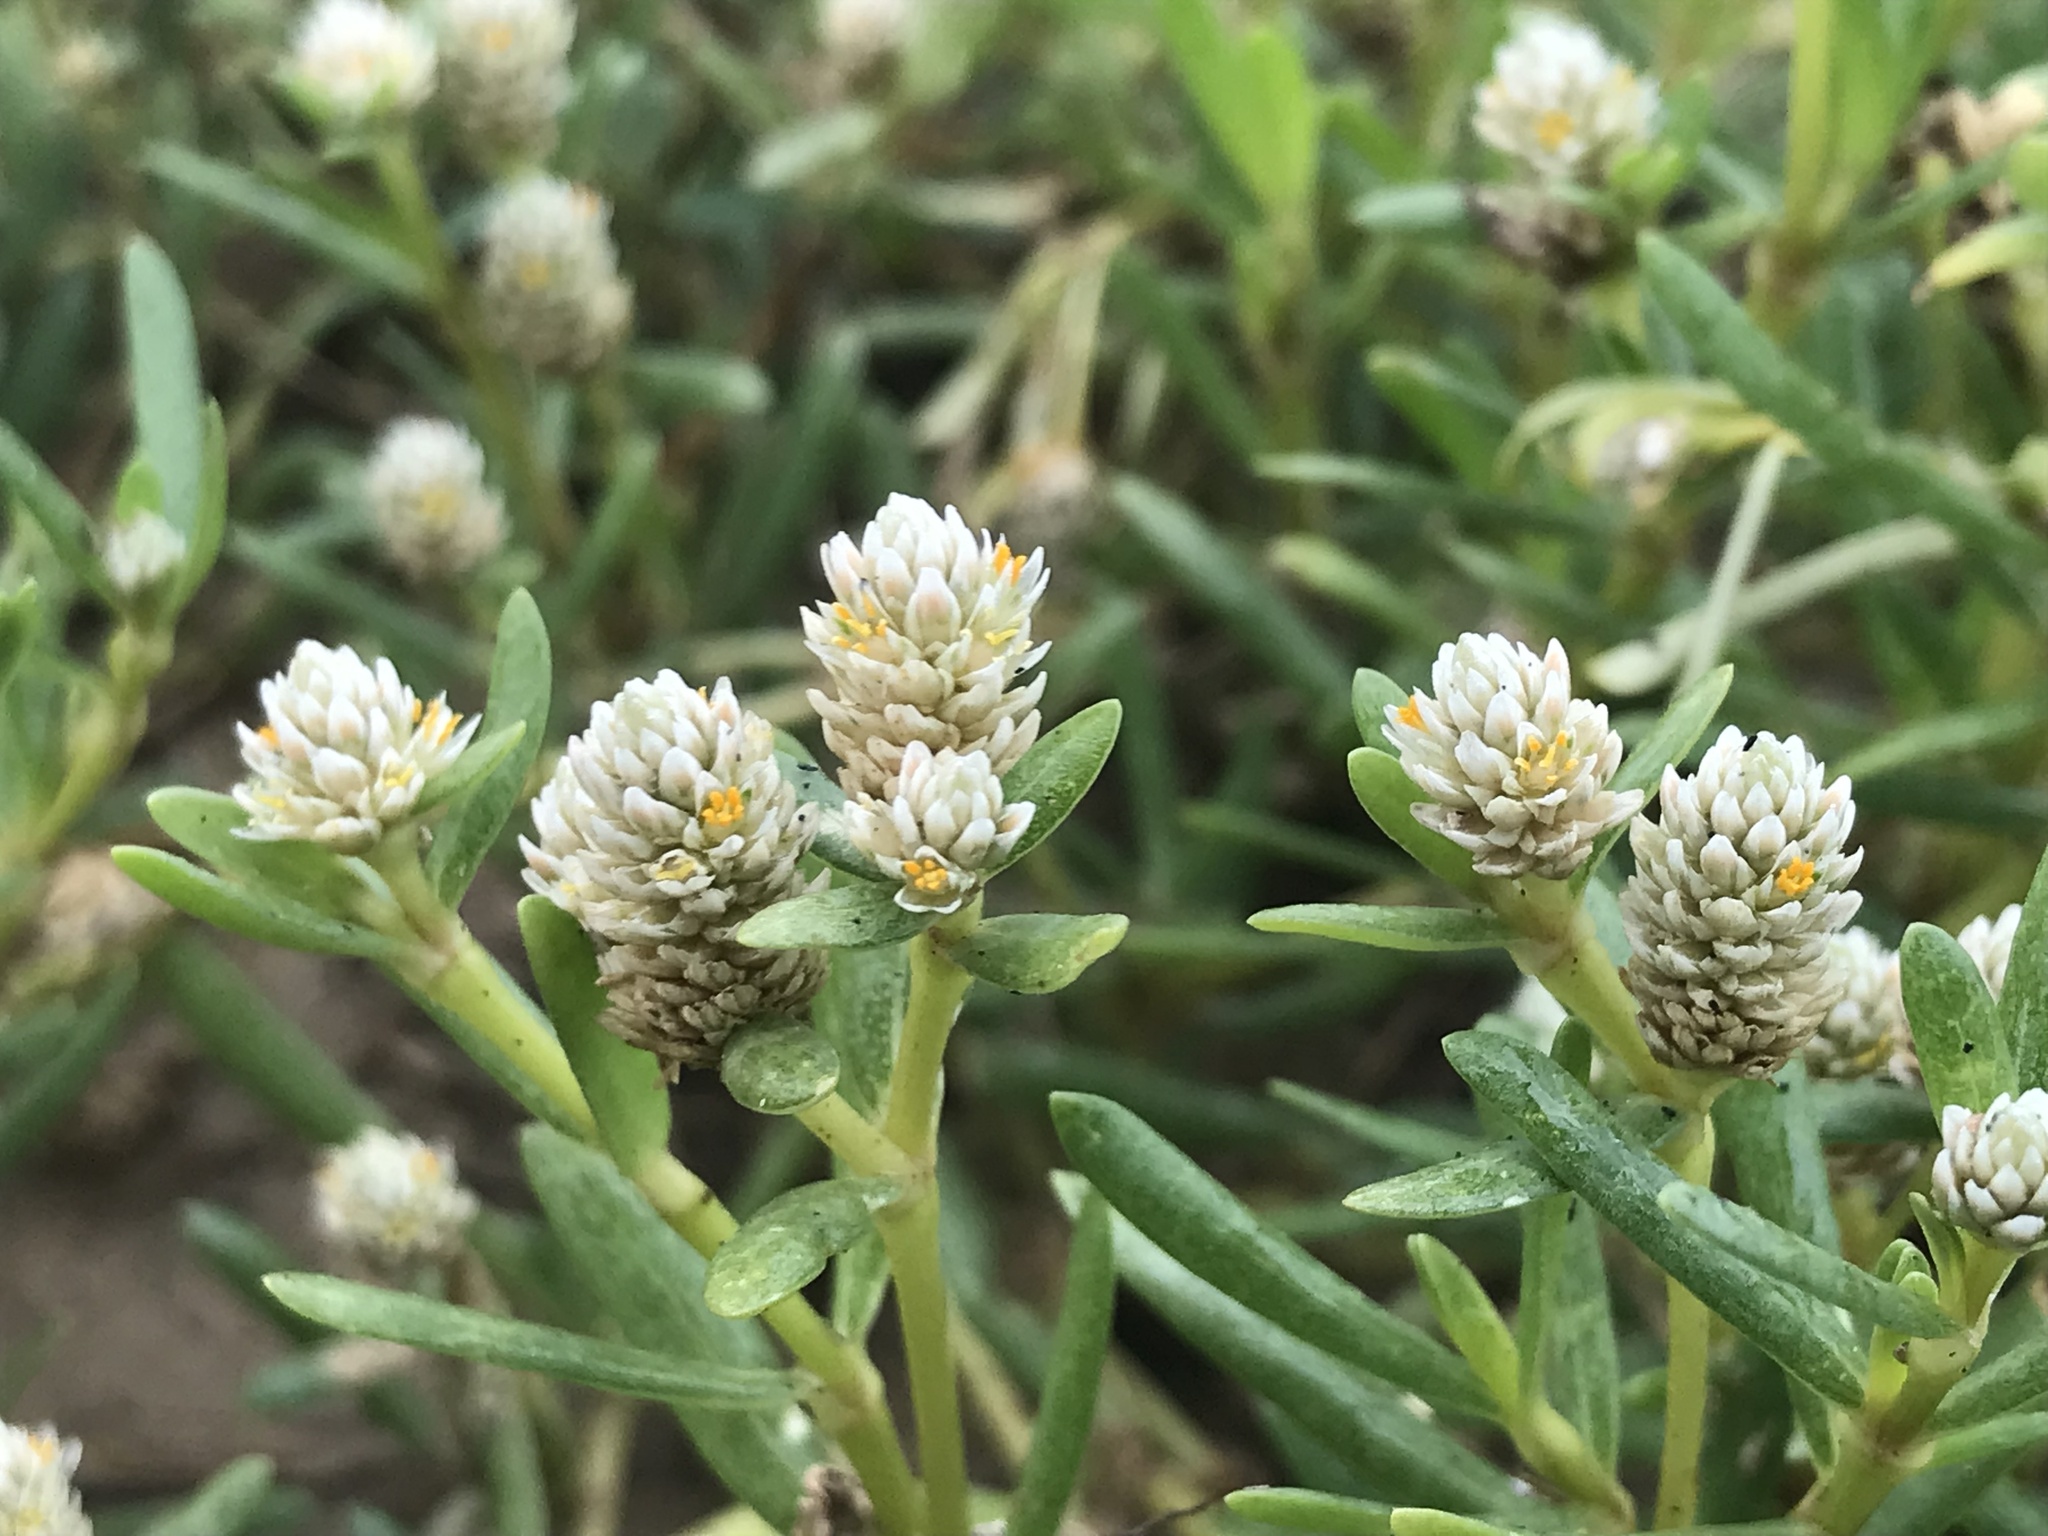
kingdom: Plantae
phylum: Tracheophyta
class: Magnoliopsida
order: Caryophyllales
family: Amaranthaceae
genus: Gomphrena
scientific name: Gomphrena vermicularis
